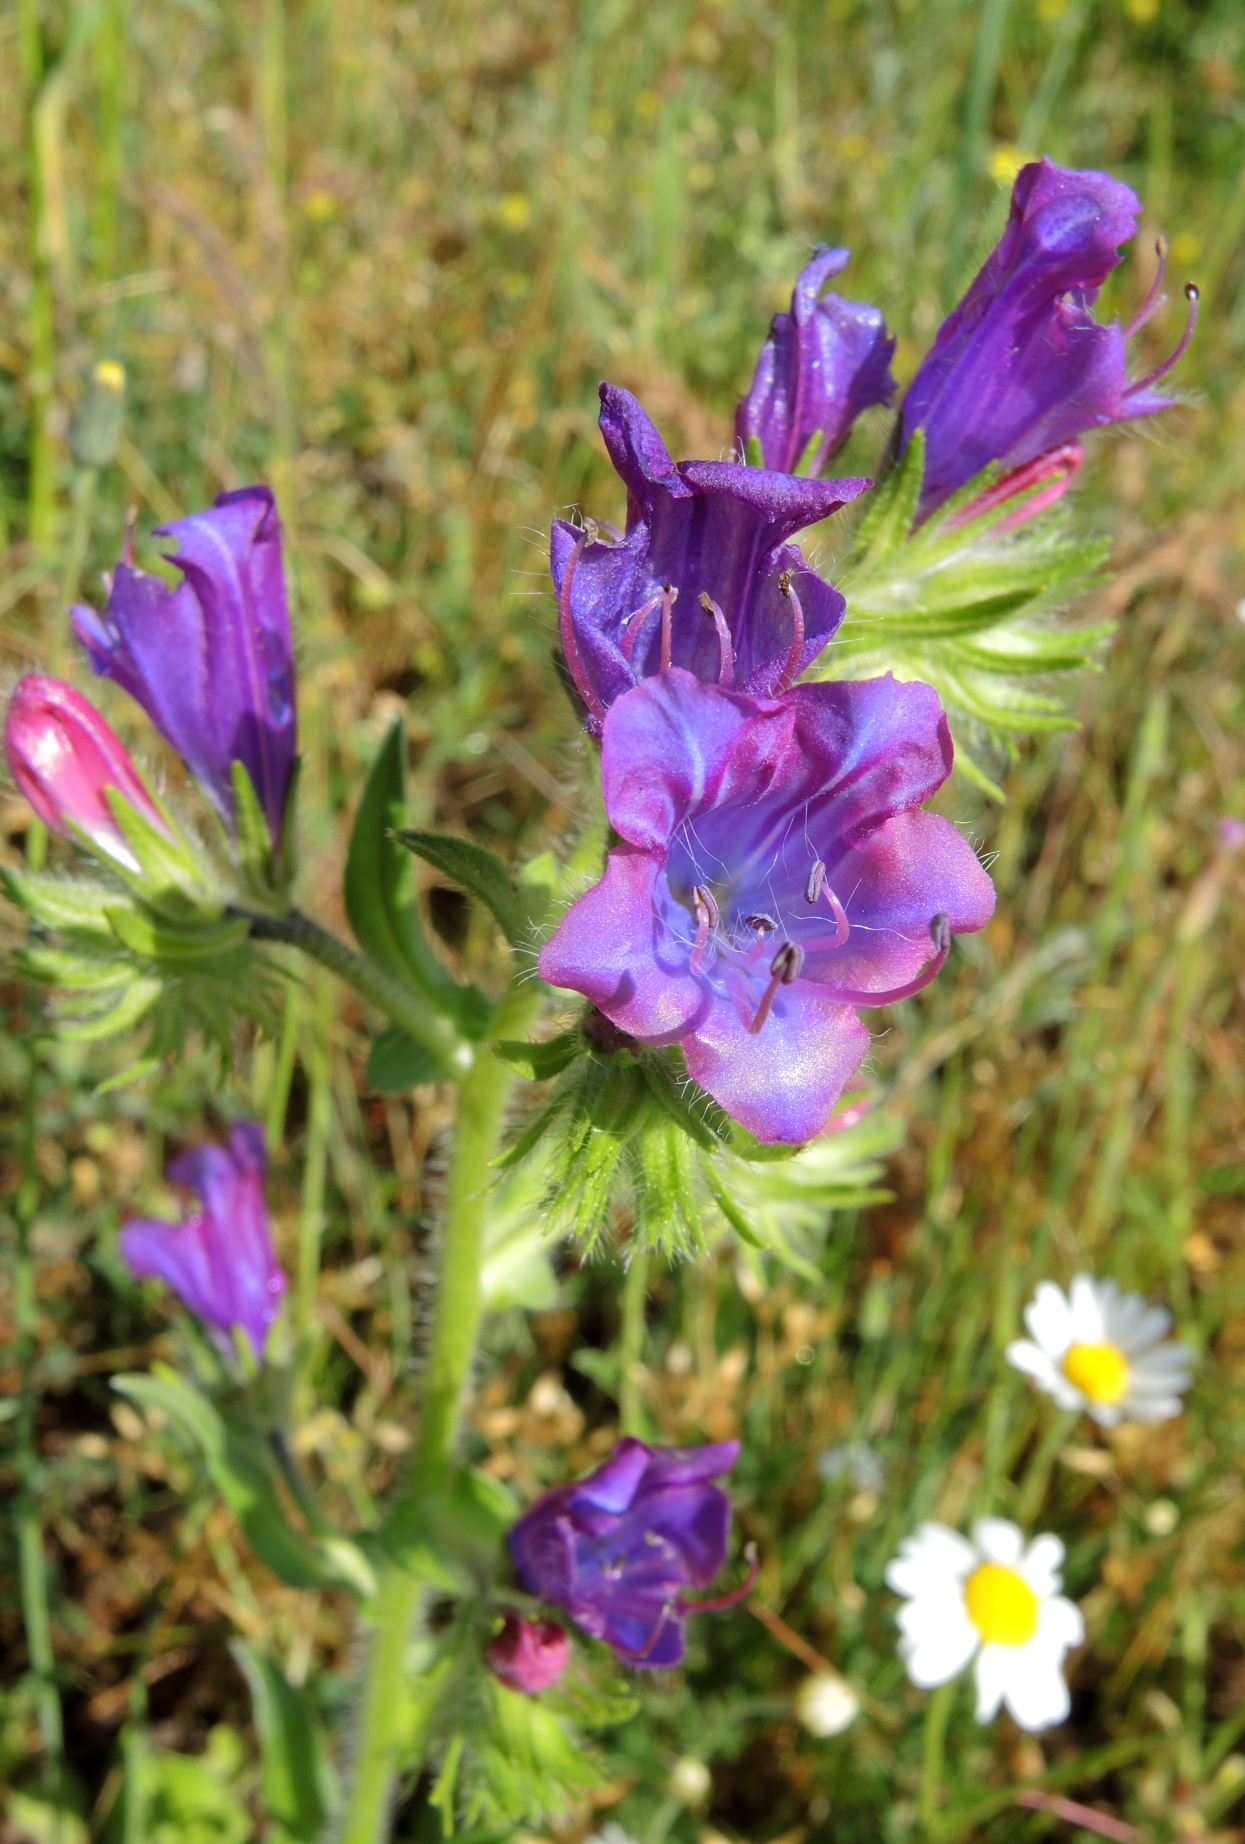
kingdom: Plantae
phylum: Tracheophyta
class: Magnoliopsida
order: Boraginales
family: Boraginaceae
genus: Echium
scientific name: Echium plantagineum
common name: Purple viper's-bugloss
